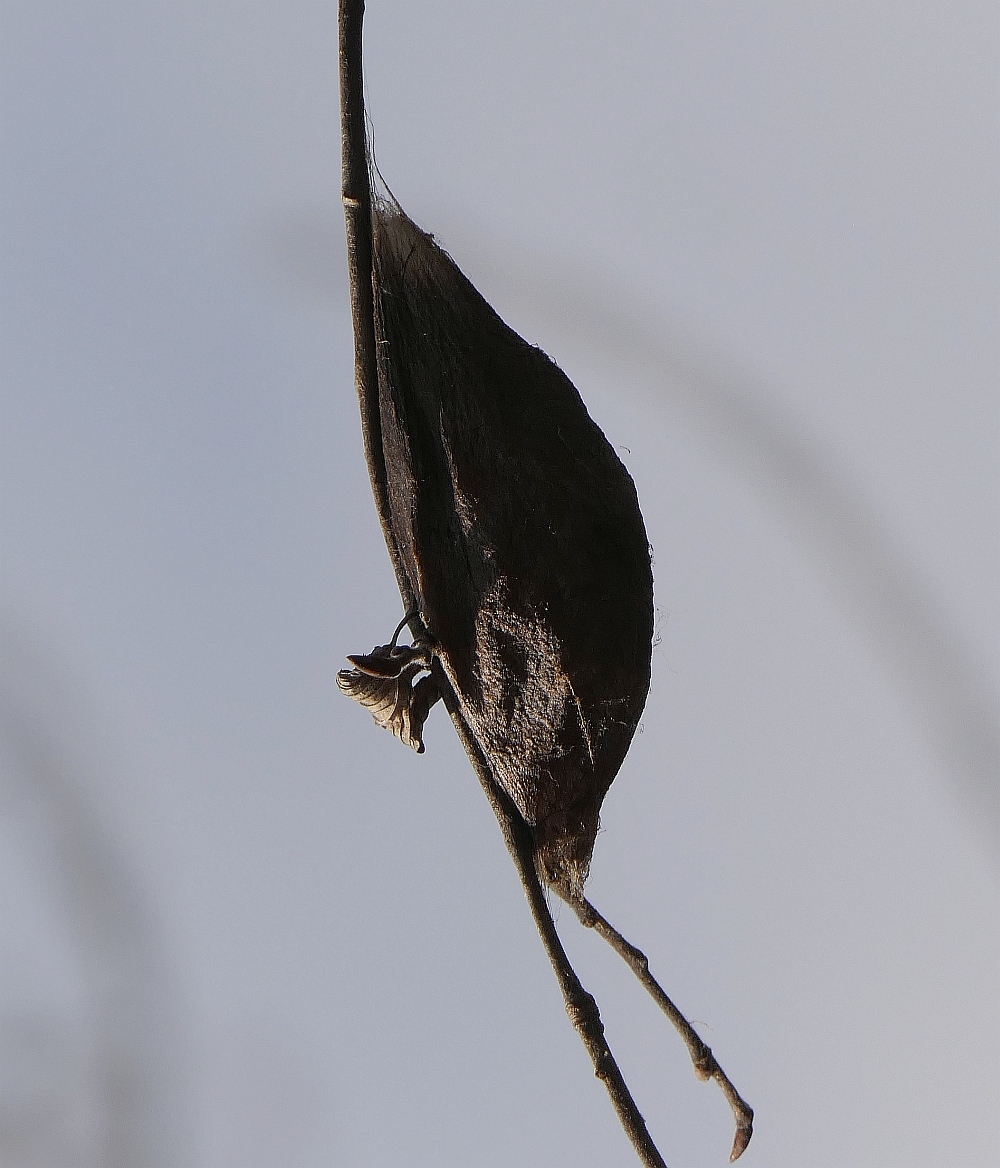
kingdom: Animalia
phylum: Arthropoda
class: Insecta
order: Lepidoptera
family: Saturniidae
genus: Hyalophora
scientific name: Hyalophora cecropia
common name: Cecropia silkmoth
